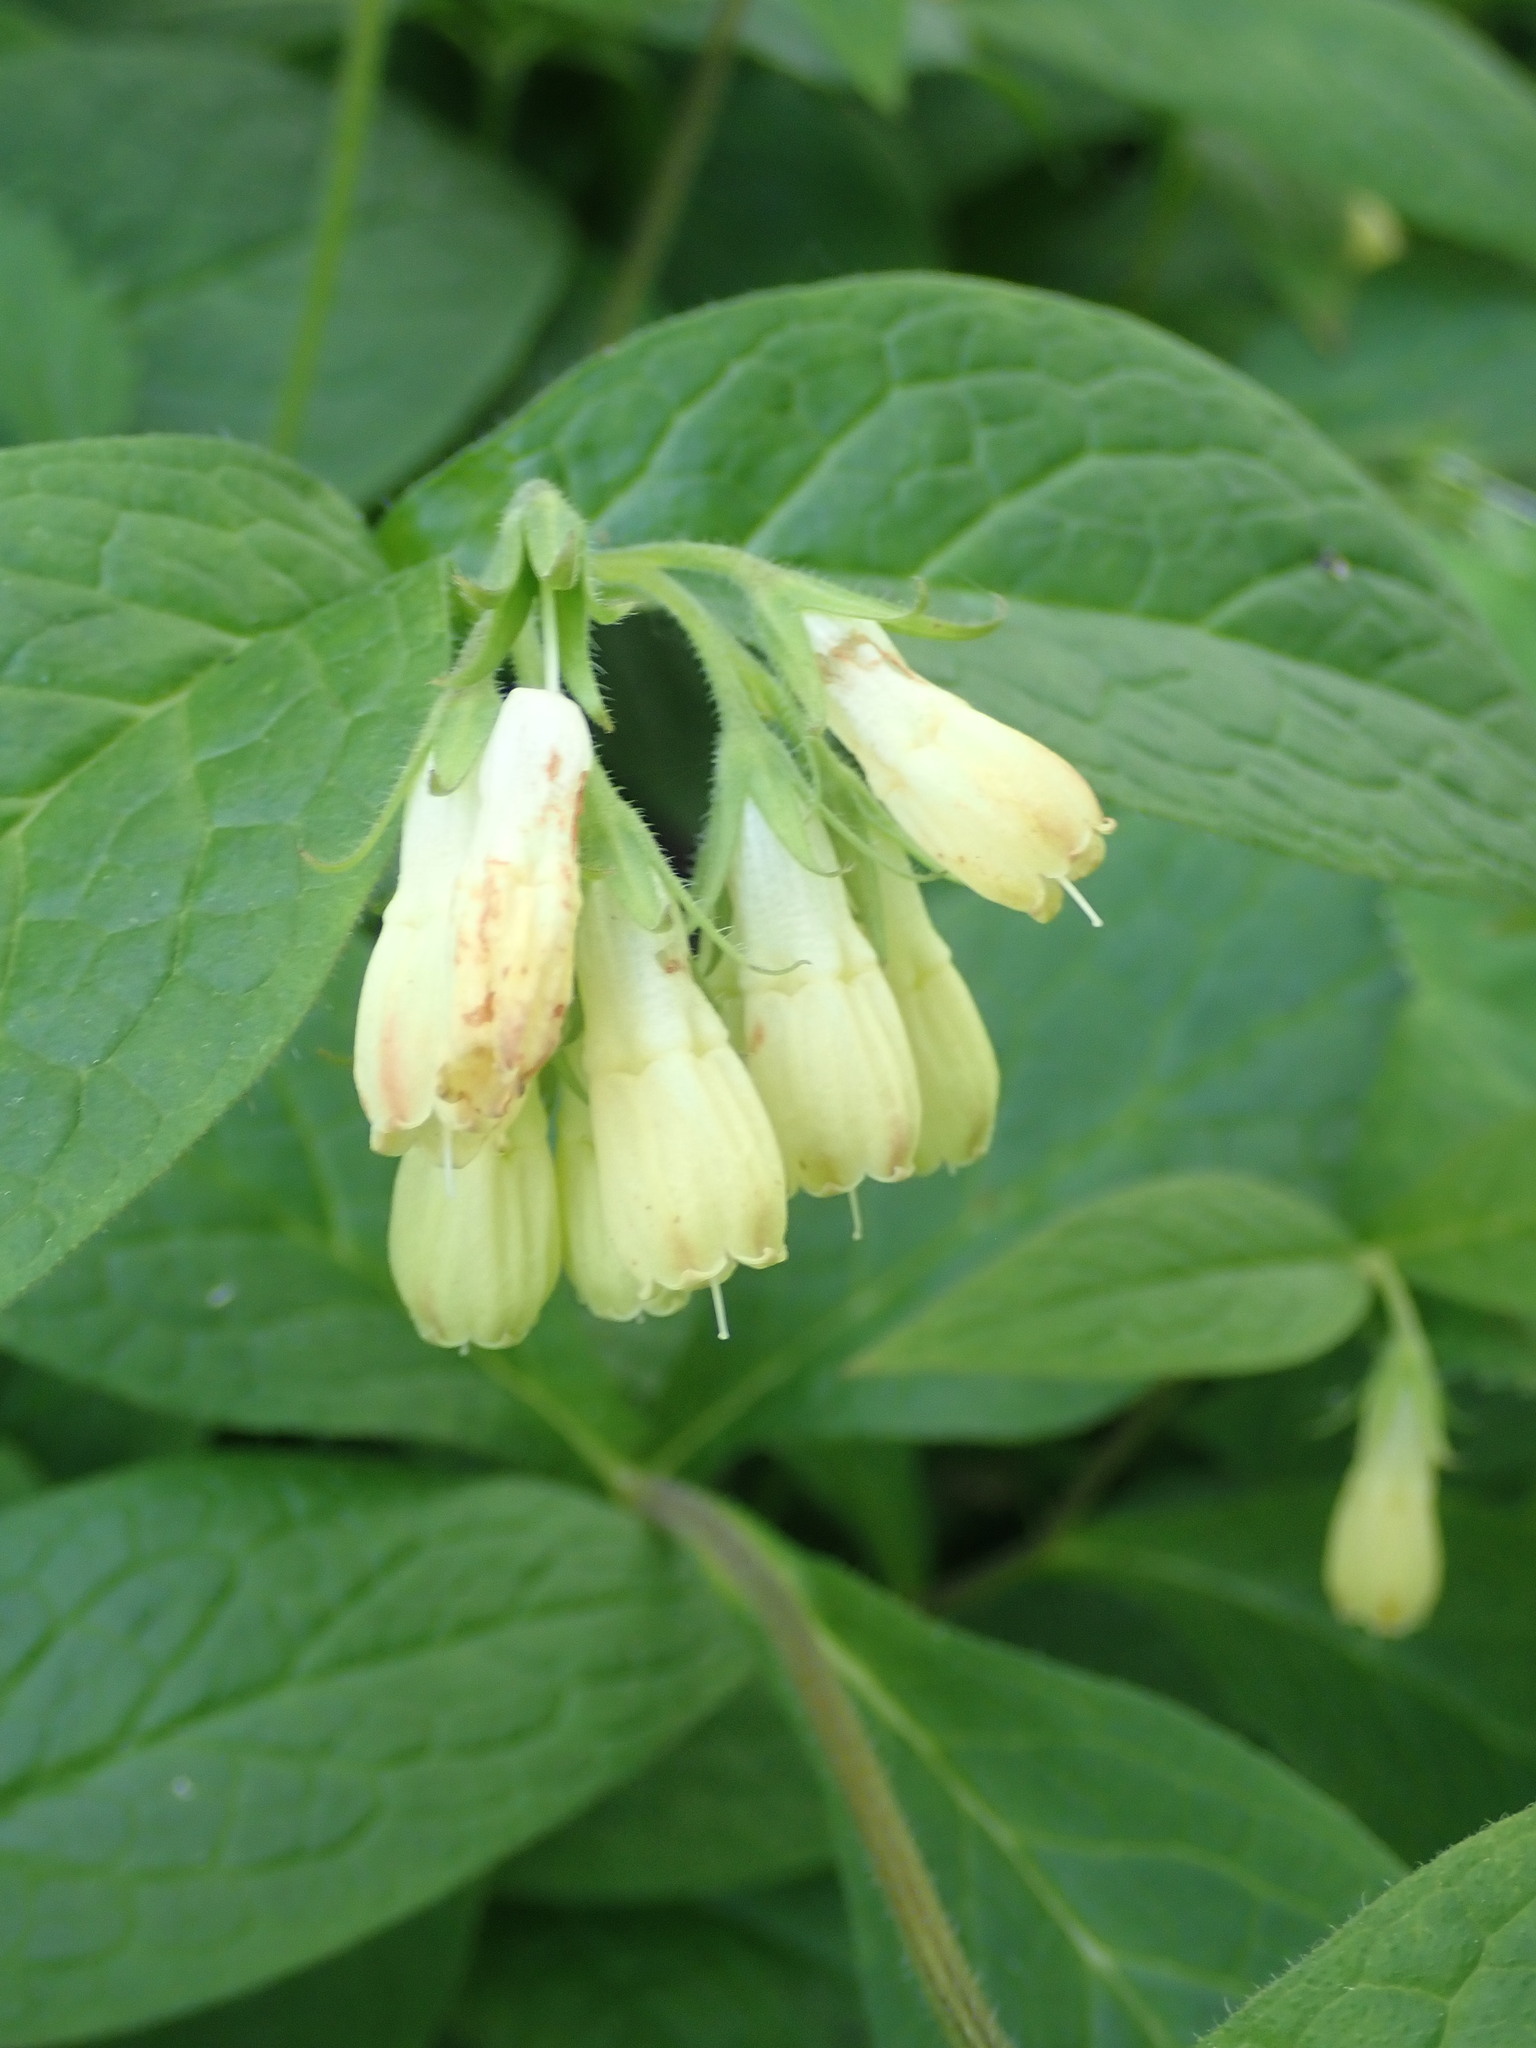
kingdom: Plantae
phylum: Tracheophyta
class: Magnoliopsida
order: Boraginales
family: Boraginaceae
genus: Symphytum
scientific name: Symphytum tuberosum
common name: Tuberous comfrey
